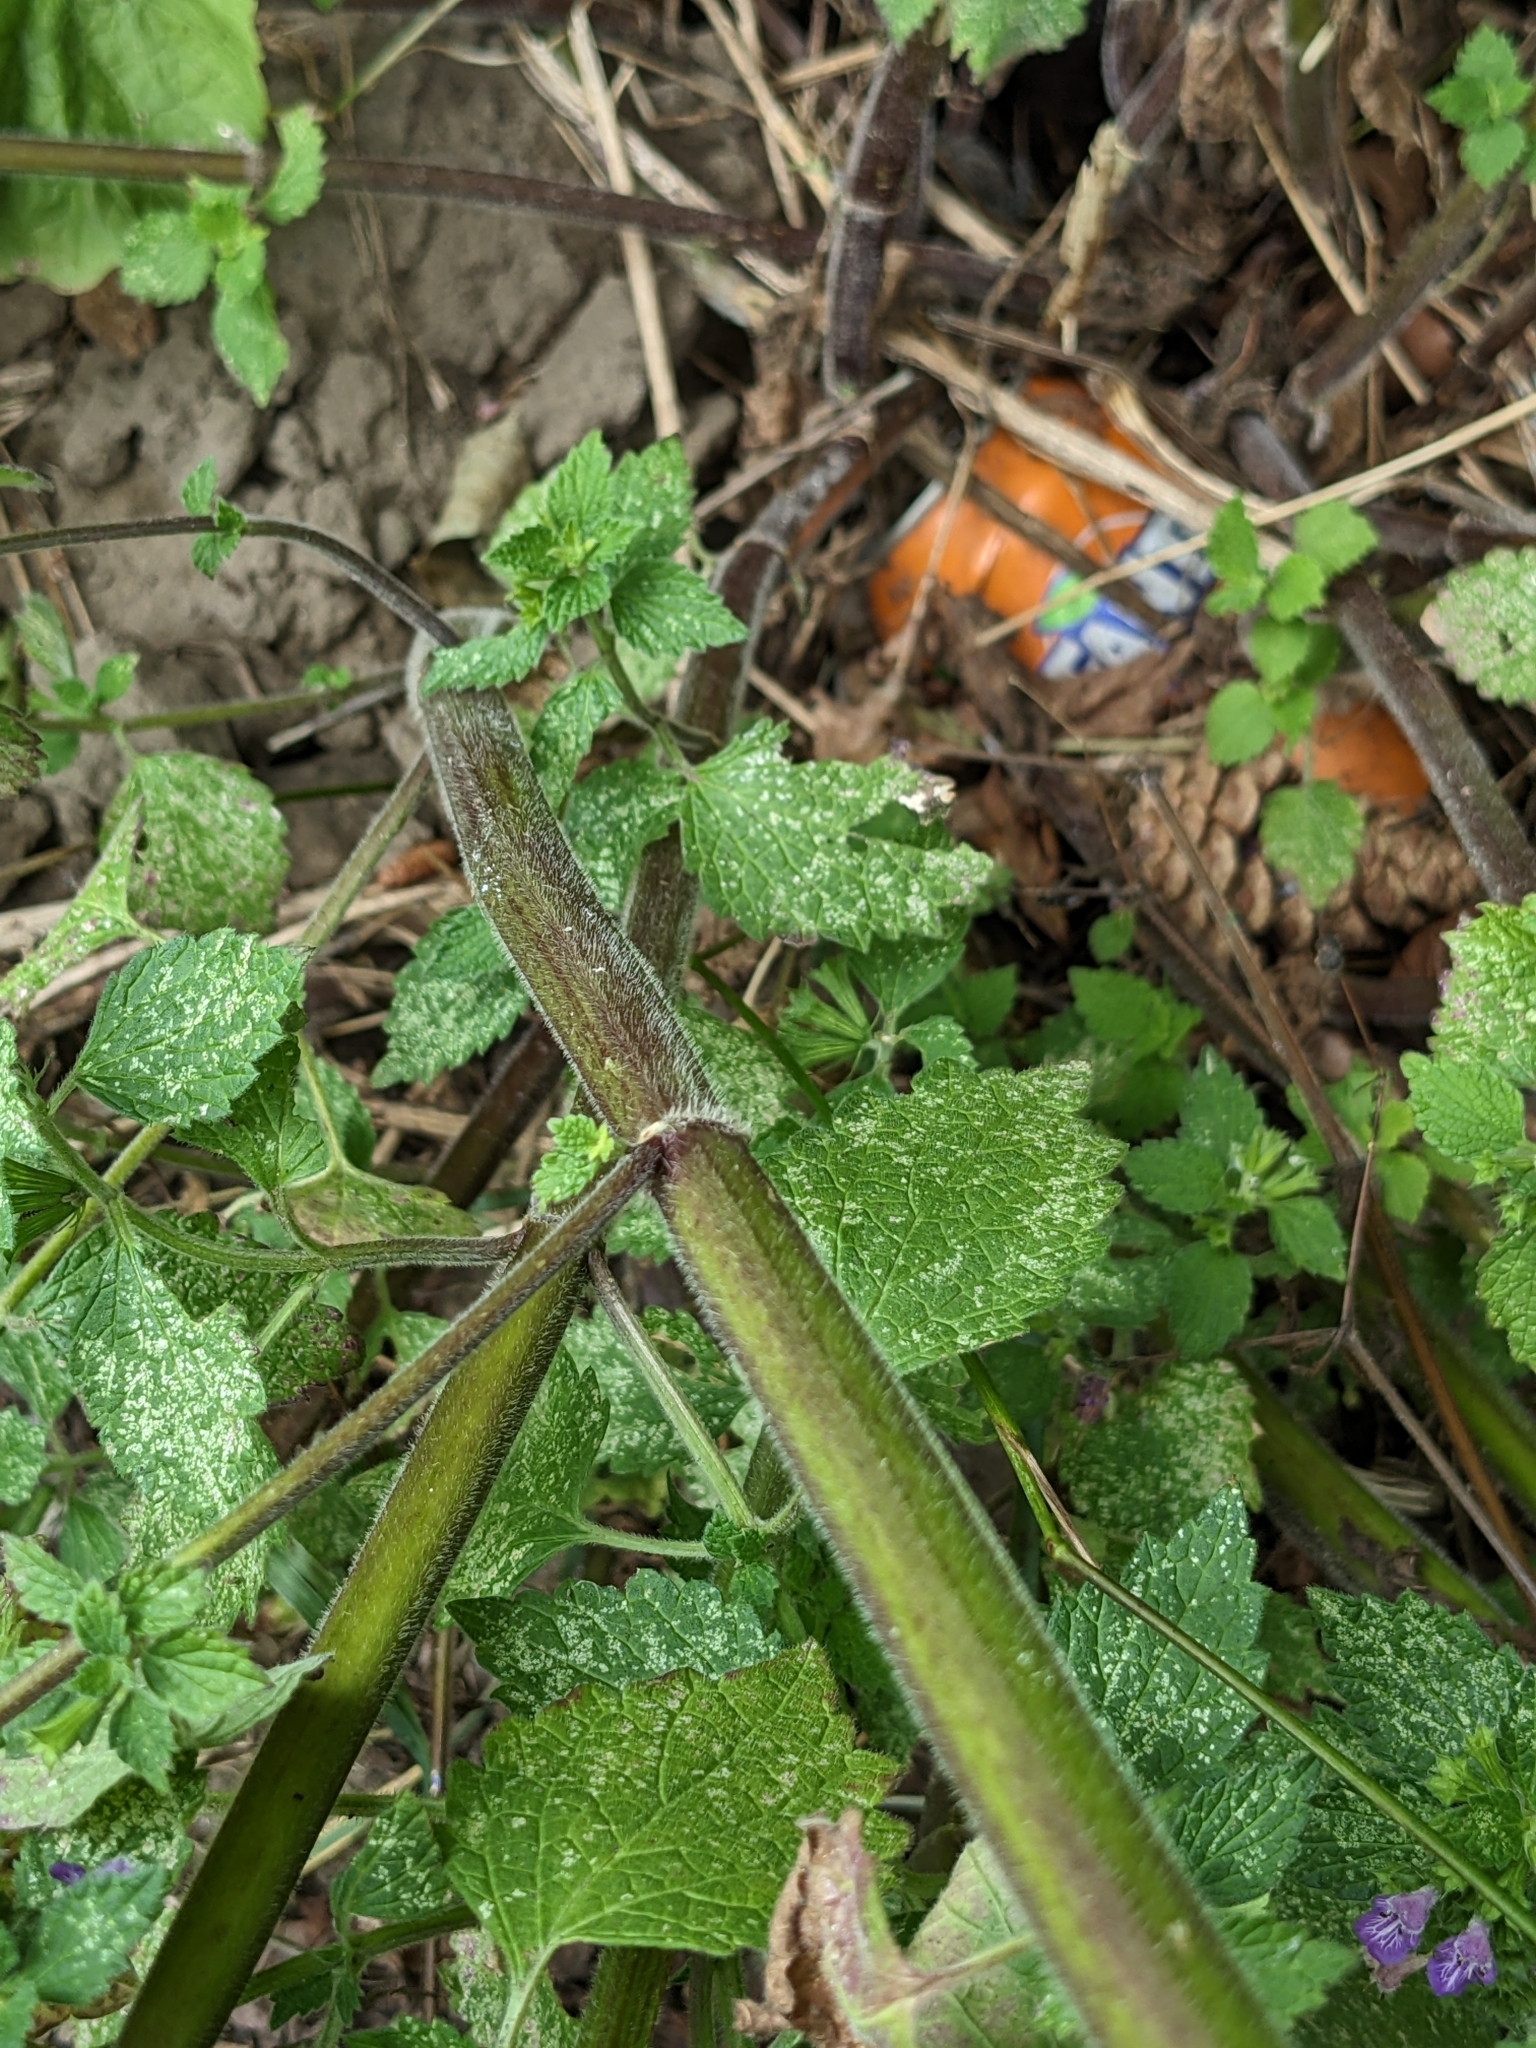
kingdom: Plantae
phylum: Tracheophyta
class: Magnoliopsida
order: Lamiales
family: Lamiaceae
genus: Ballota
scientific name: Ballota nigra
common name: Black horehound
